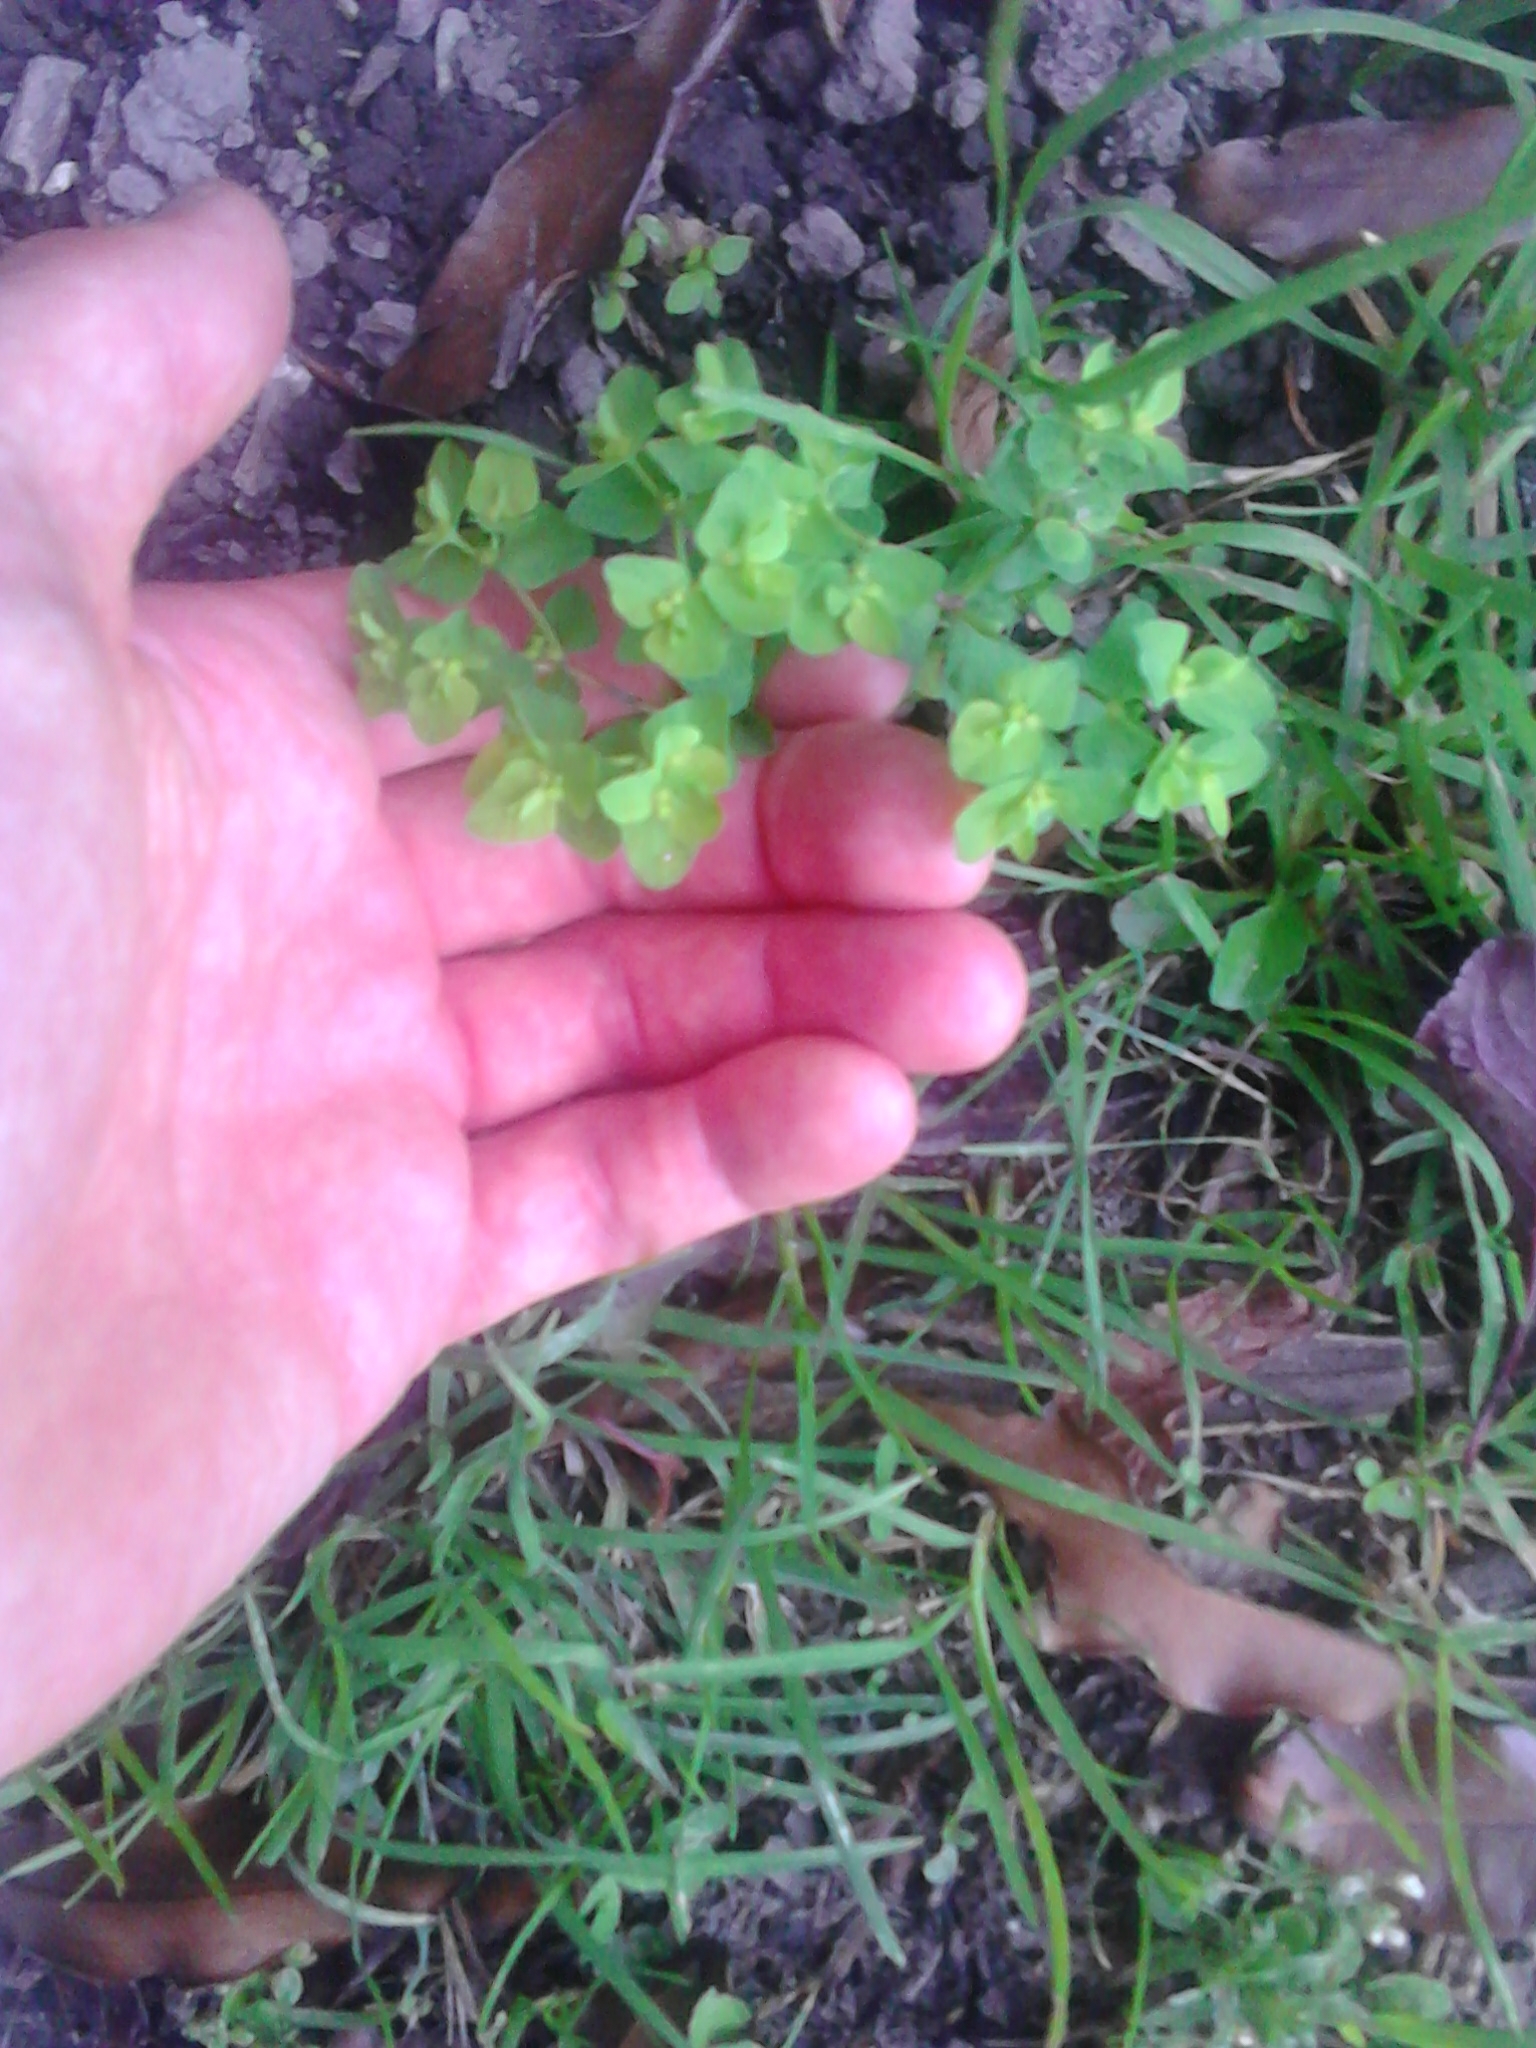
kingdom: Plantae
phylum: Tracheophyta
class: Magnoliopsida
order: Malpighiales
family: Euphorbiaceae
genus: Euphorbia
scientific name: Euphorbia peplus
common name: Petty spurge
